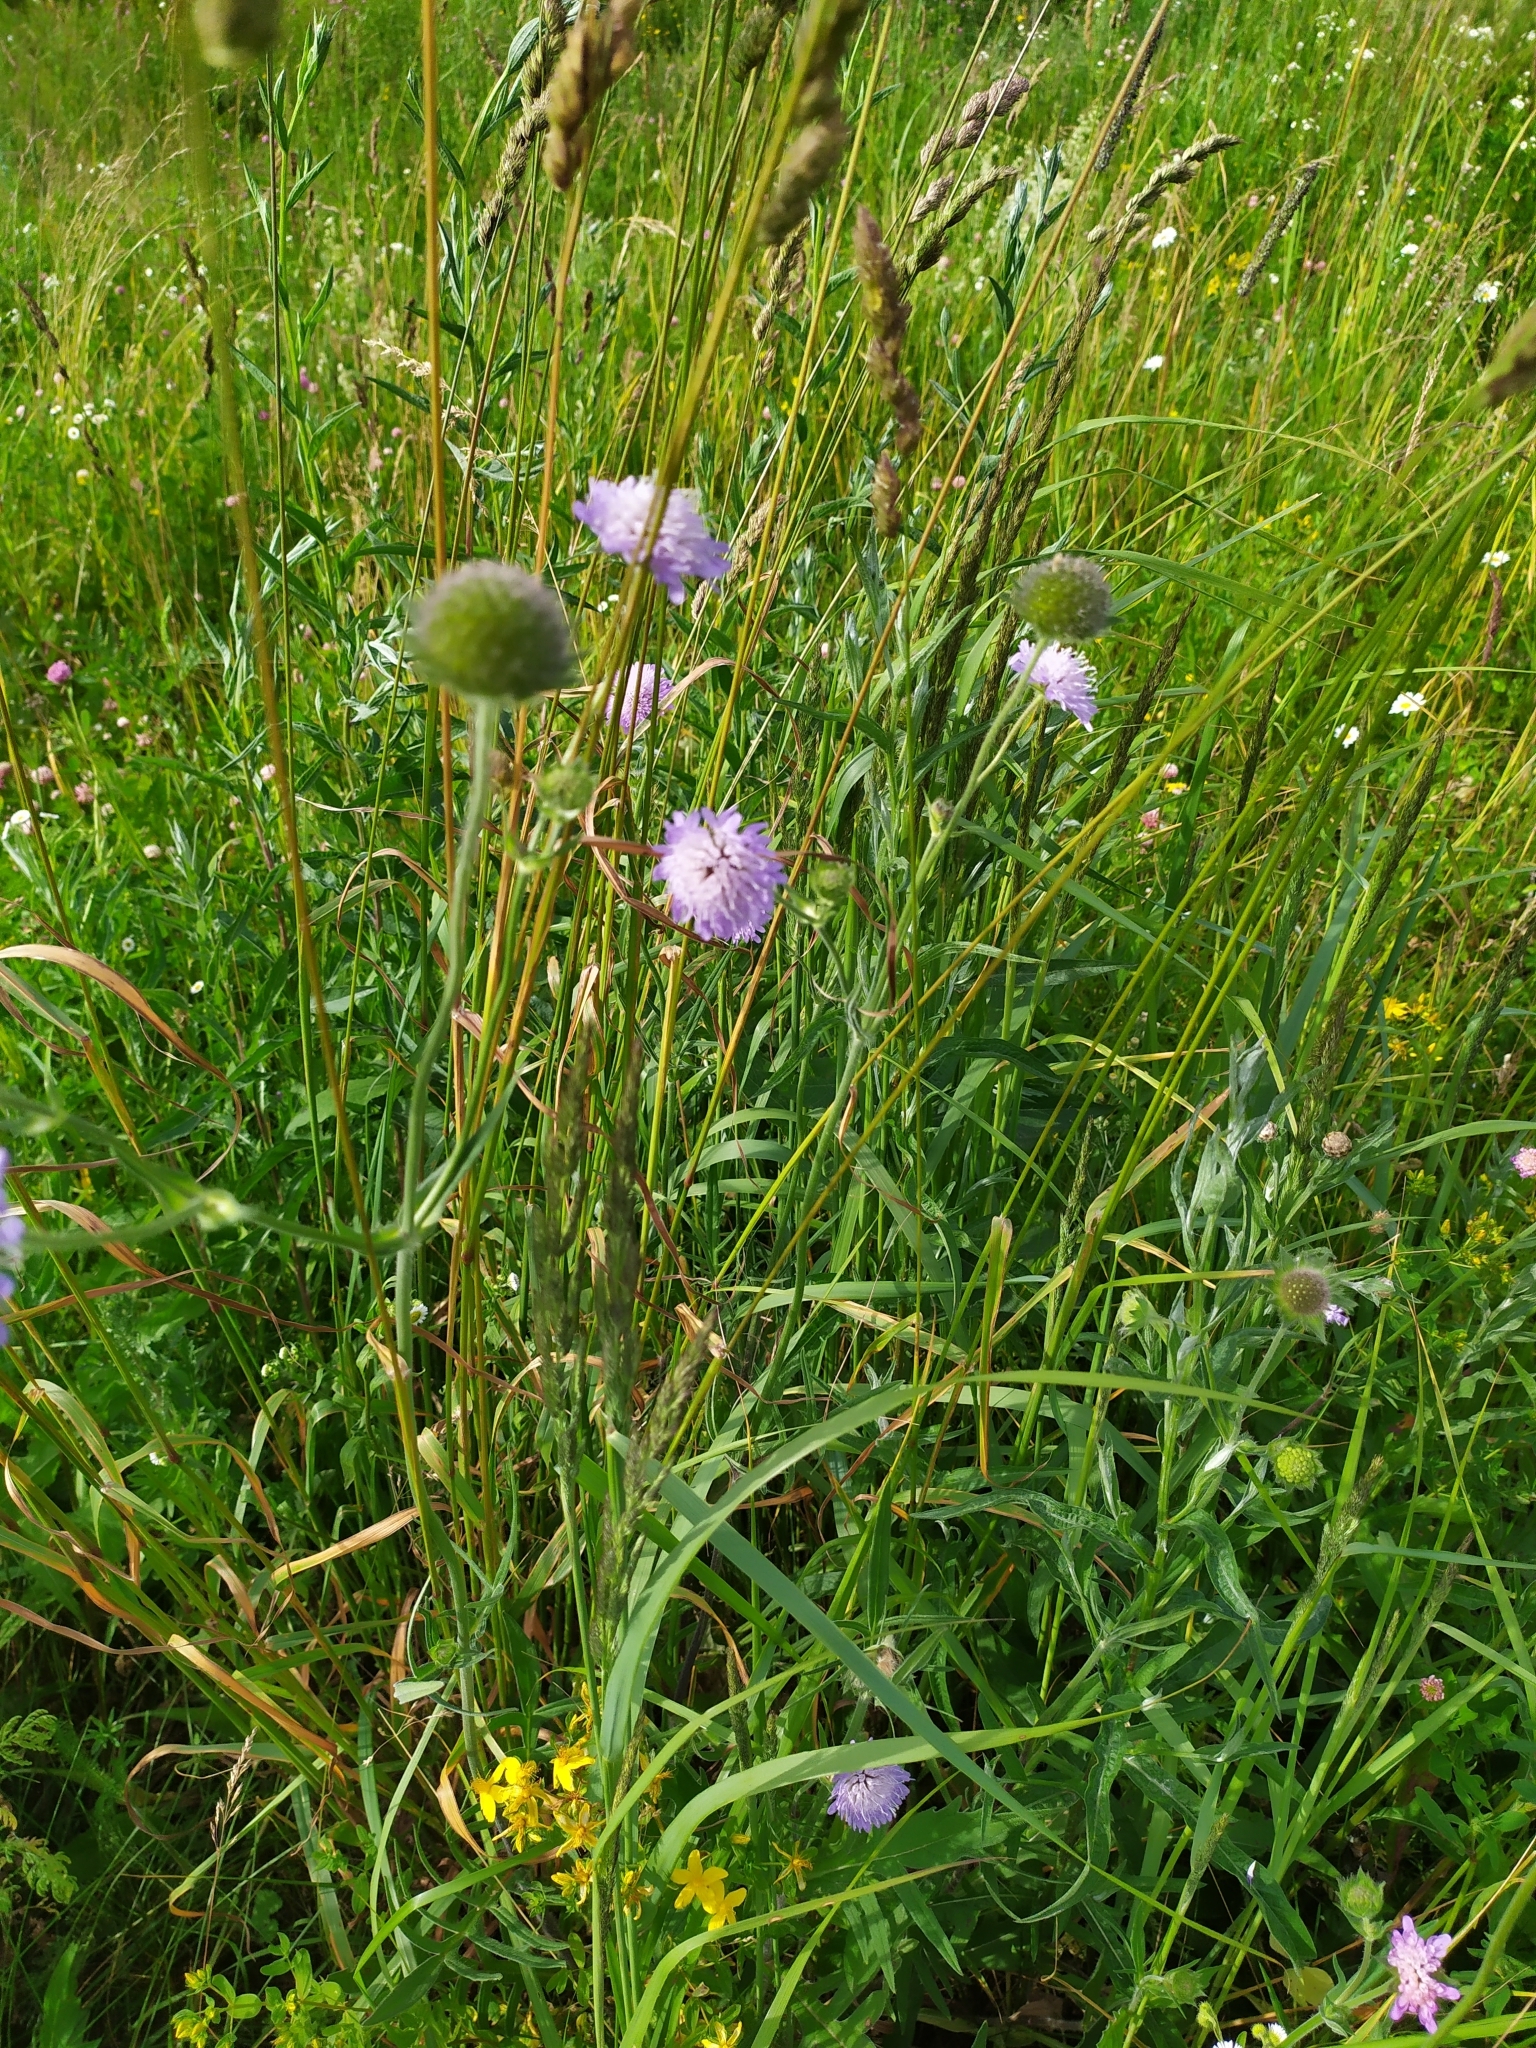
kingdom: Plantae
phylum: Tracheophyta
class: Magnoliopsida
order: Dipsacales
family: Caprifoliaceae
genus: Knautia
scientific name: Knautia arvensis
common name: Field scabiosa
